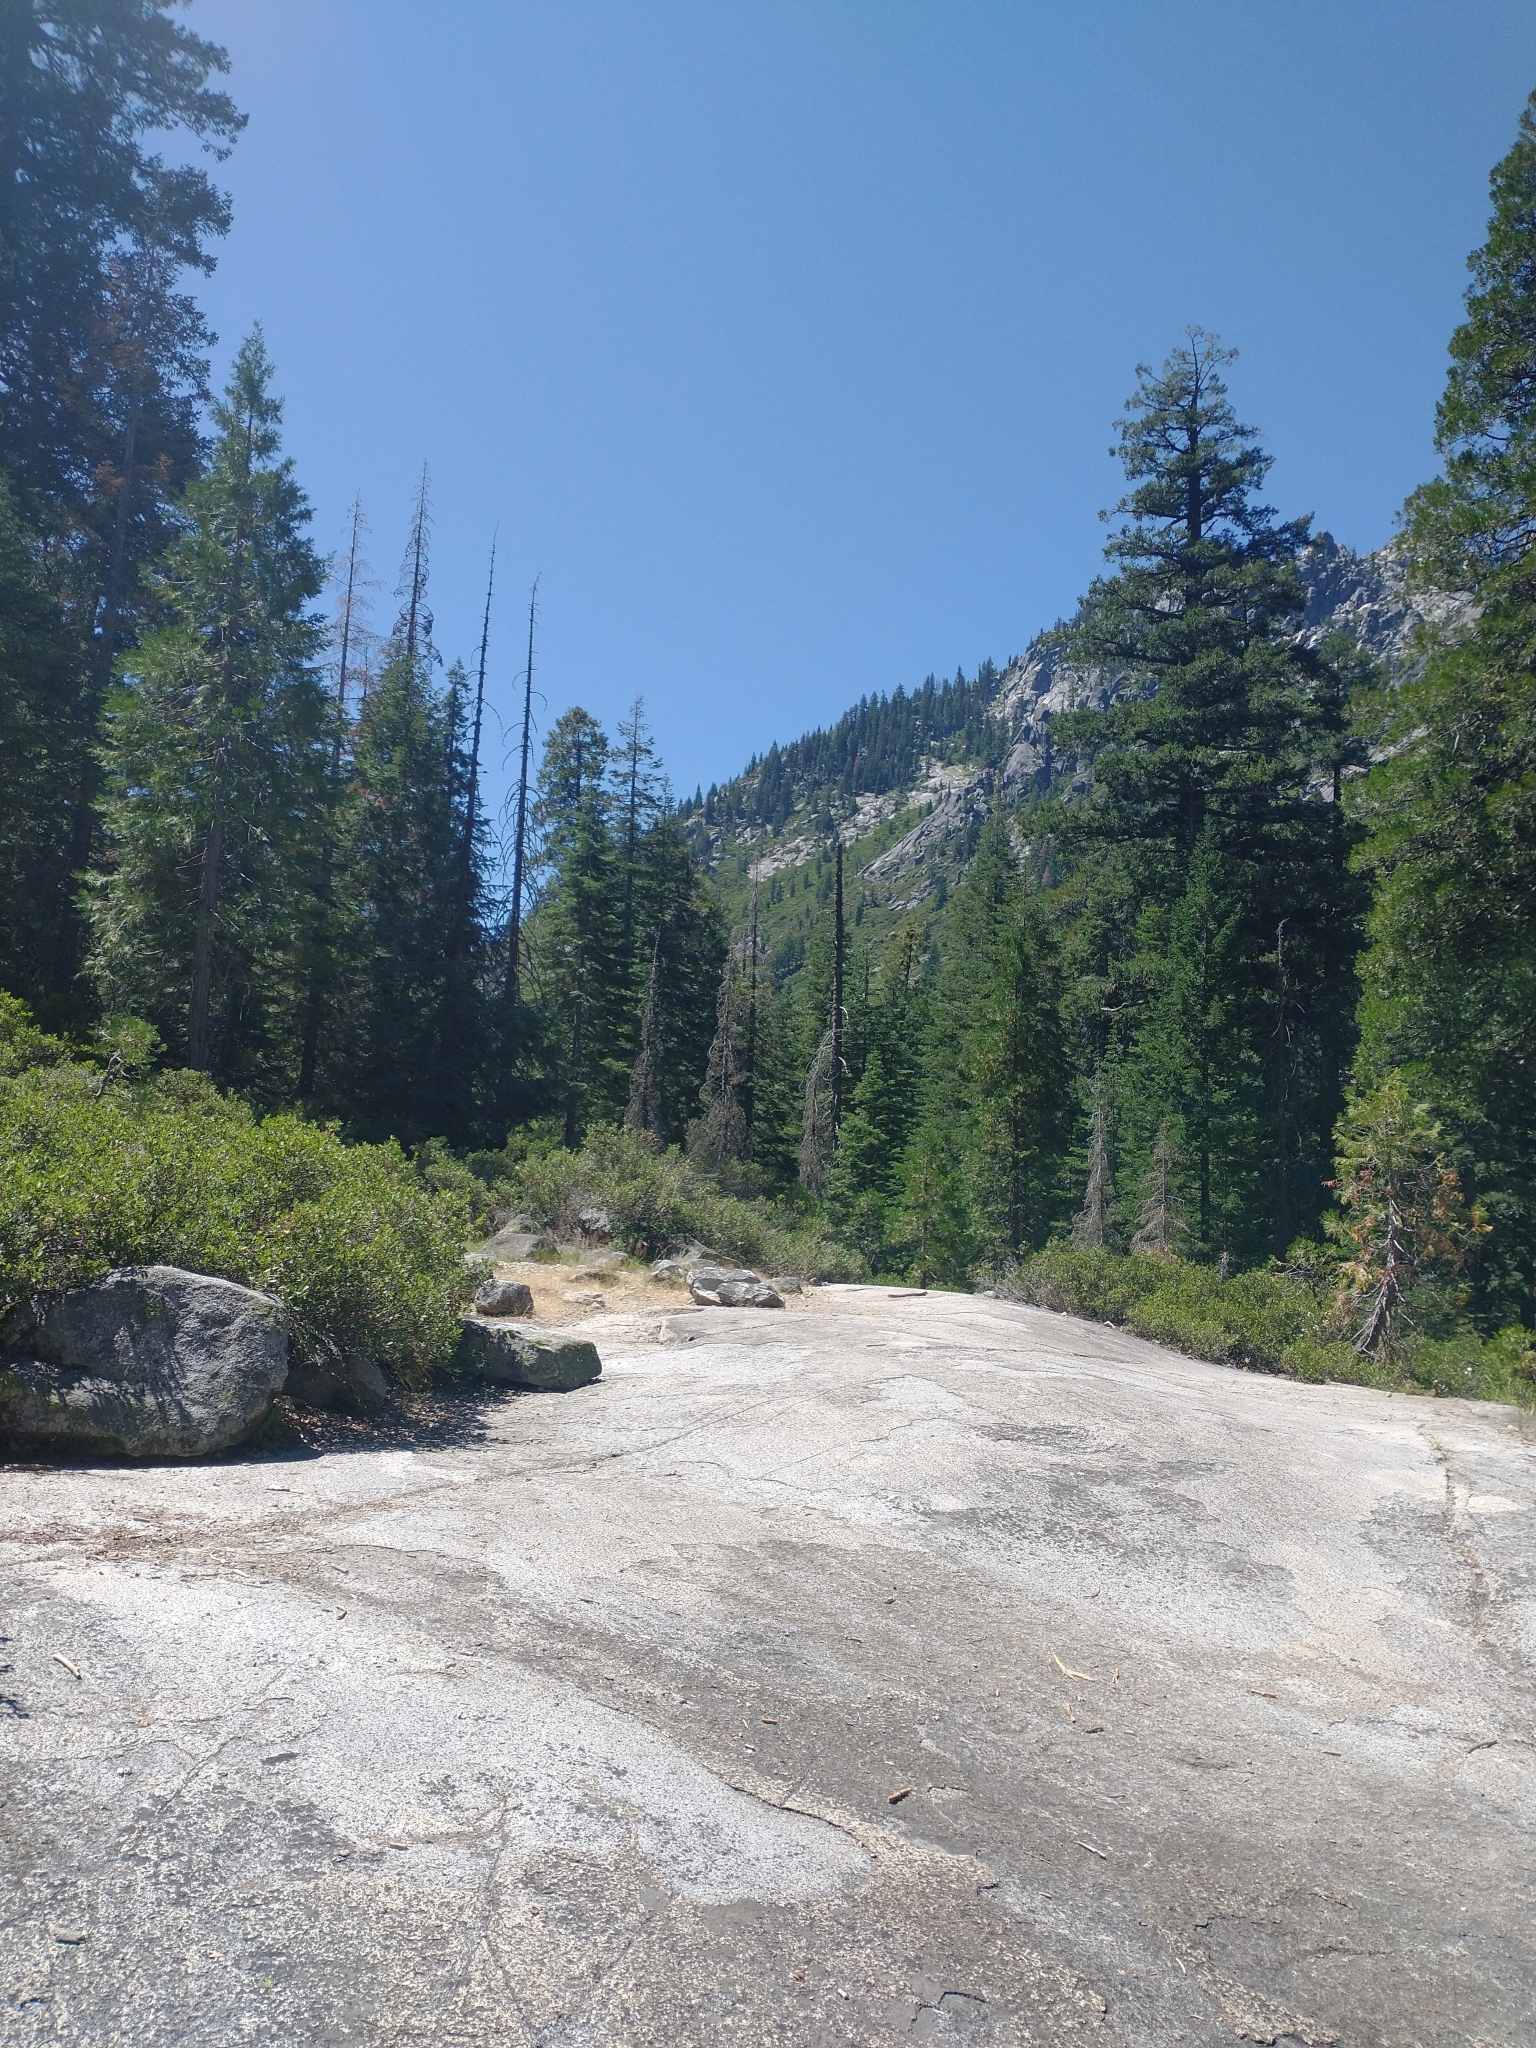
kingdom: Plantae
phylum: Tracheophyta
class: Pinopsida
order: Pinales
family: Pinaceae
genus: Pseudotsuga
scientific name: Pseudotsuga menziesii
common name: Douglas fir
